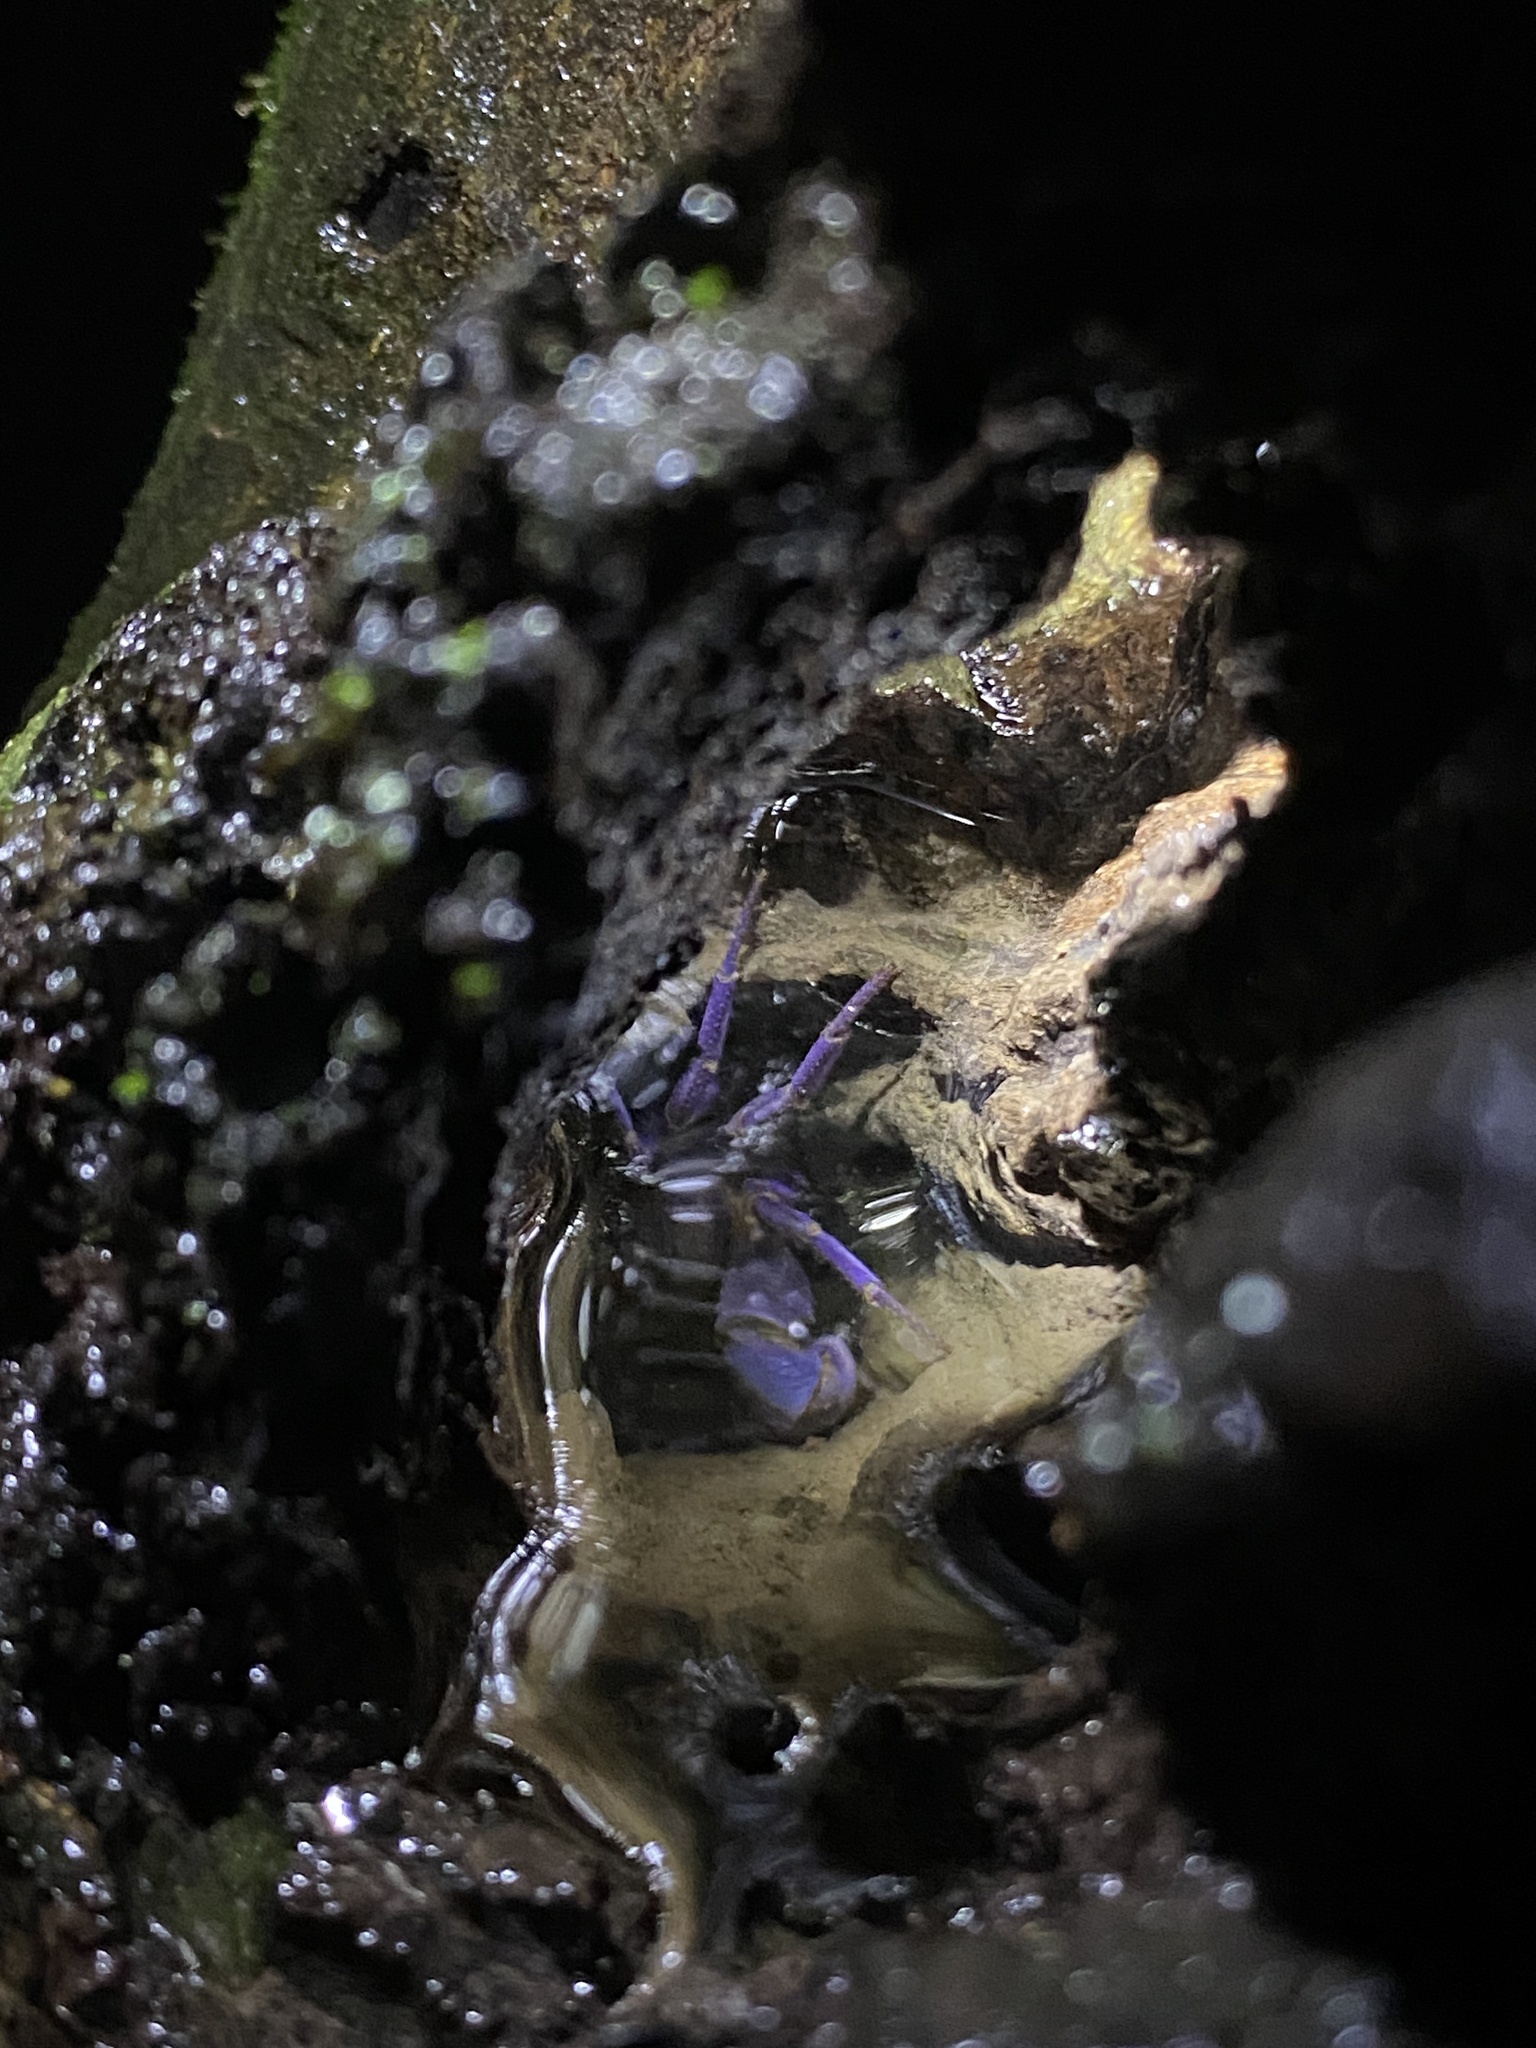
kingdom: Animalia
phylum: Arthropoda
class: Malacostraca
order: Decapoda
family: Gecarcinucidae
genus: Ghatiana
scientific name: Ghatiana atropurpurea
